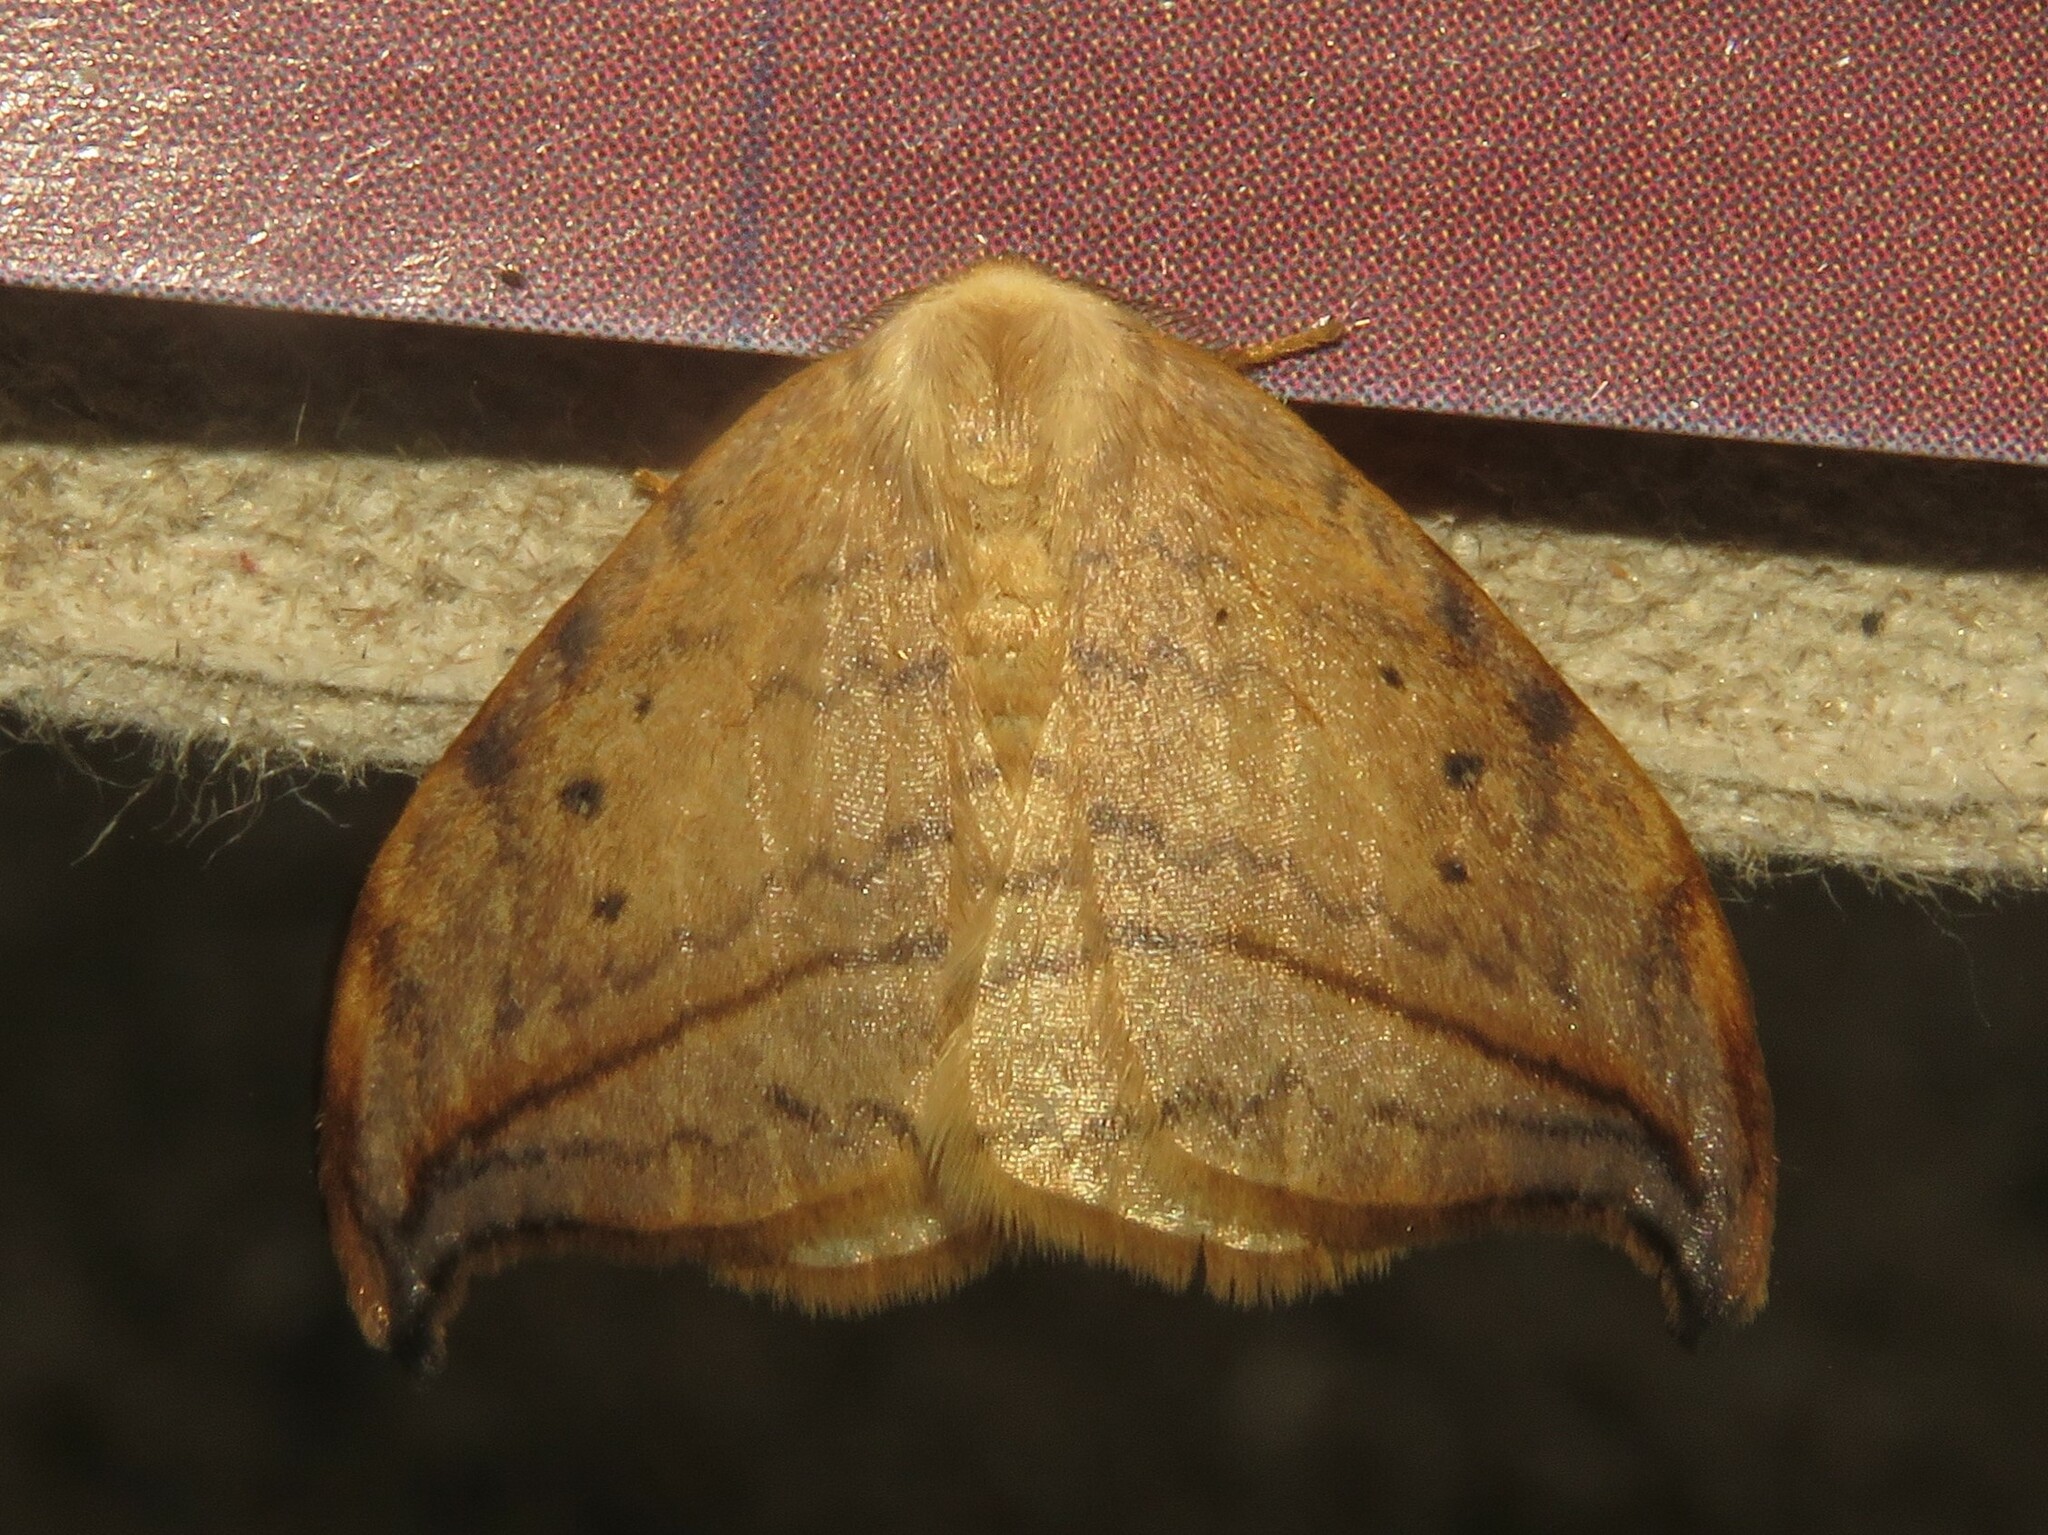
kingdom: Animalia
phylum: Arthropoda
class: Insecta
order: Lepidoptera
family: Drepanidae
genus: Drepana
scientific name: Drepana arcuata
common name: Arched hooktip moth
